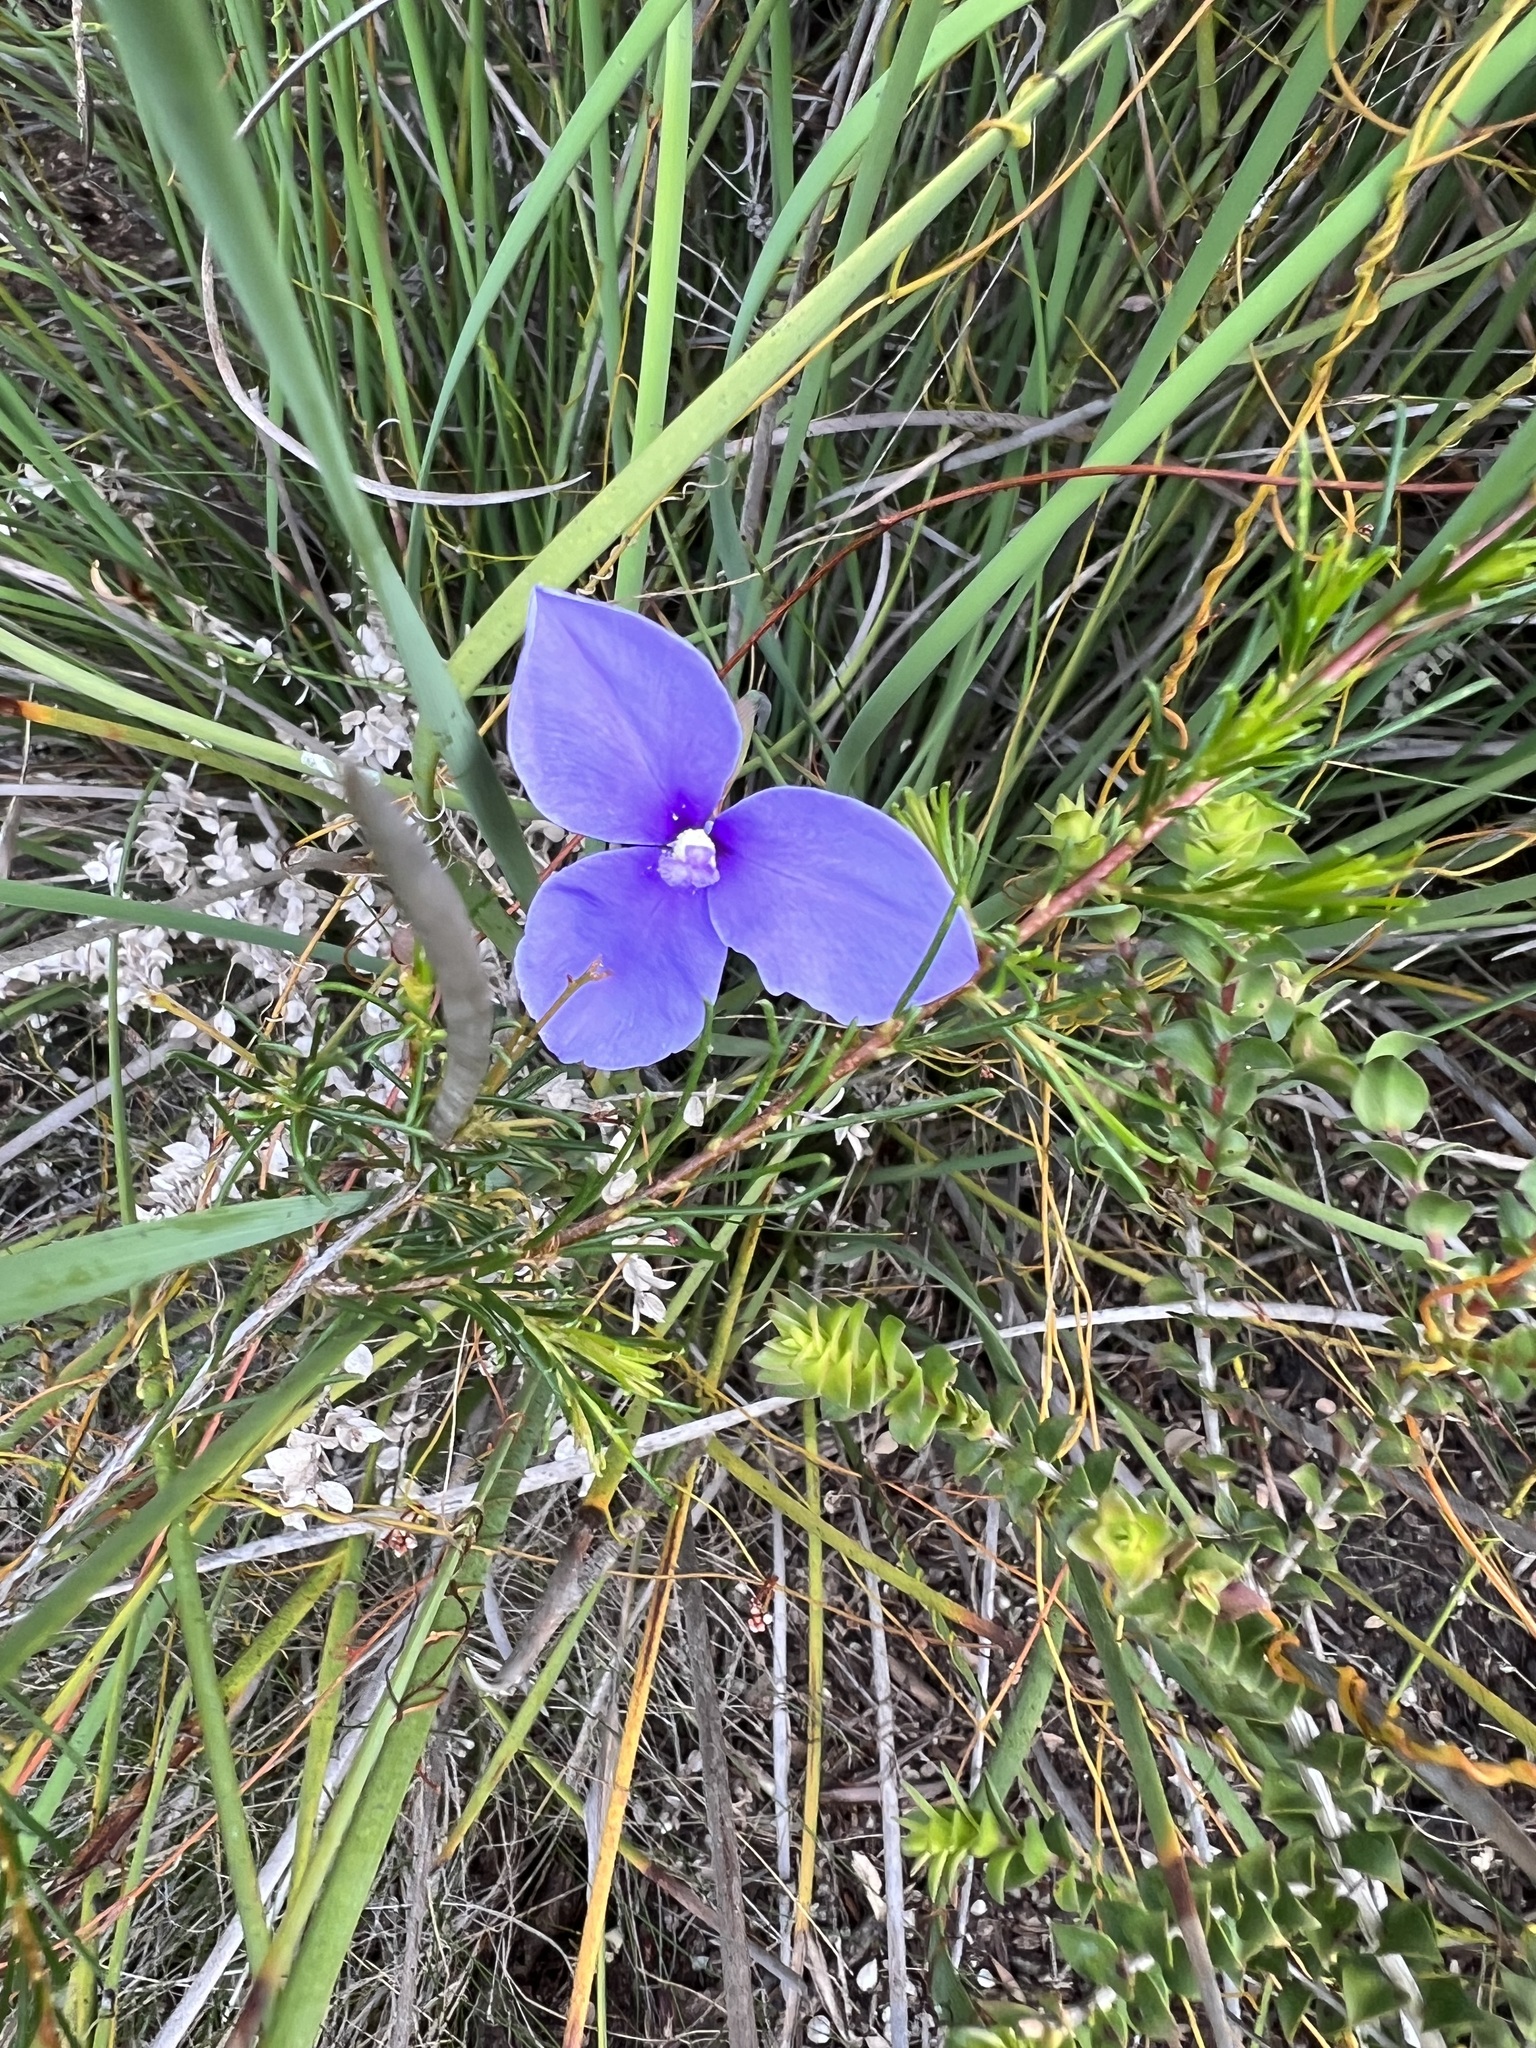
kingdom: Plantae
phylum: Tracheophyta
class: Liliopsida
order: Asparagales
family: Iridaceae
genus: Patersonia
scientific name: Patersonia fragilis
